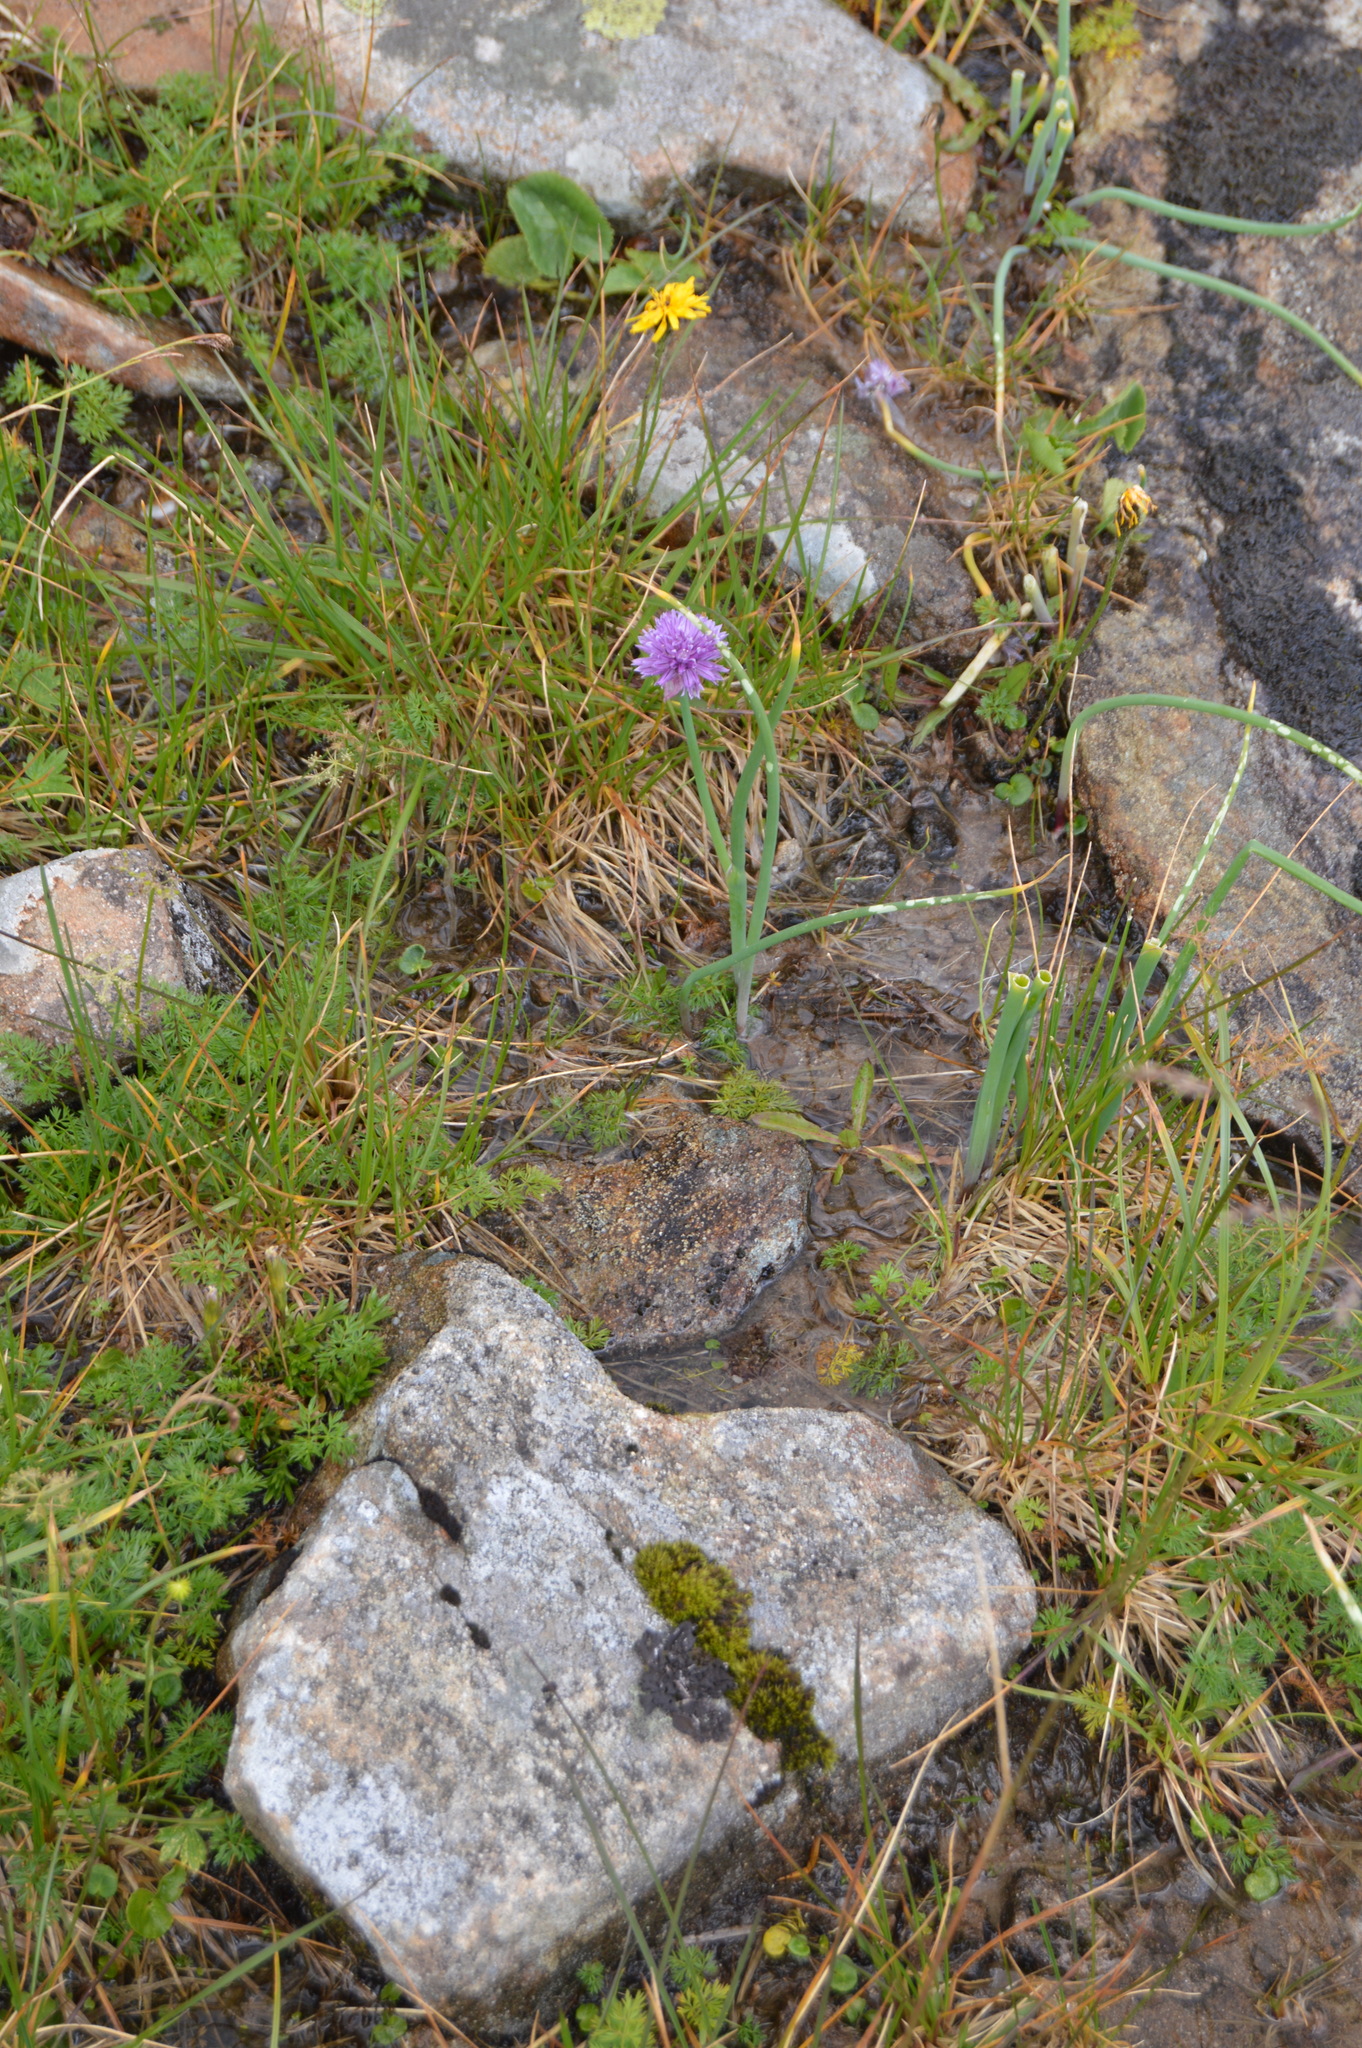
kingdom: Plantae
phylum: Tracheophyta
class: Liliopsida
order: Asparagales
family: Amaryllidaceae
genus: Allium
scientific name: Allium schoenoprasum
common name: Chives
